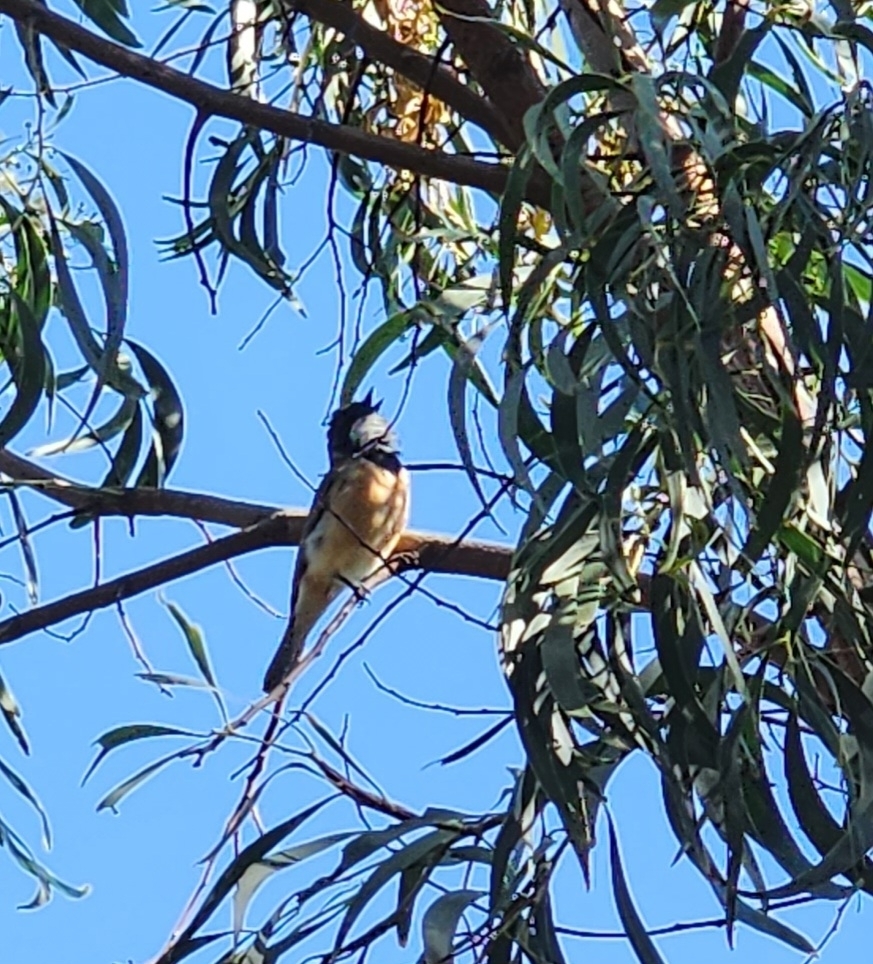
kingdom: Animalia
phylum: Chordata
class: Aves
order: Passeriformes
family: Pachycephalidae
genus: Pachycephala
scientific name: Pachycephala rufiventris
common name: Rufous whistler
